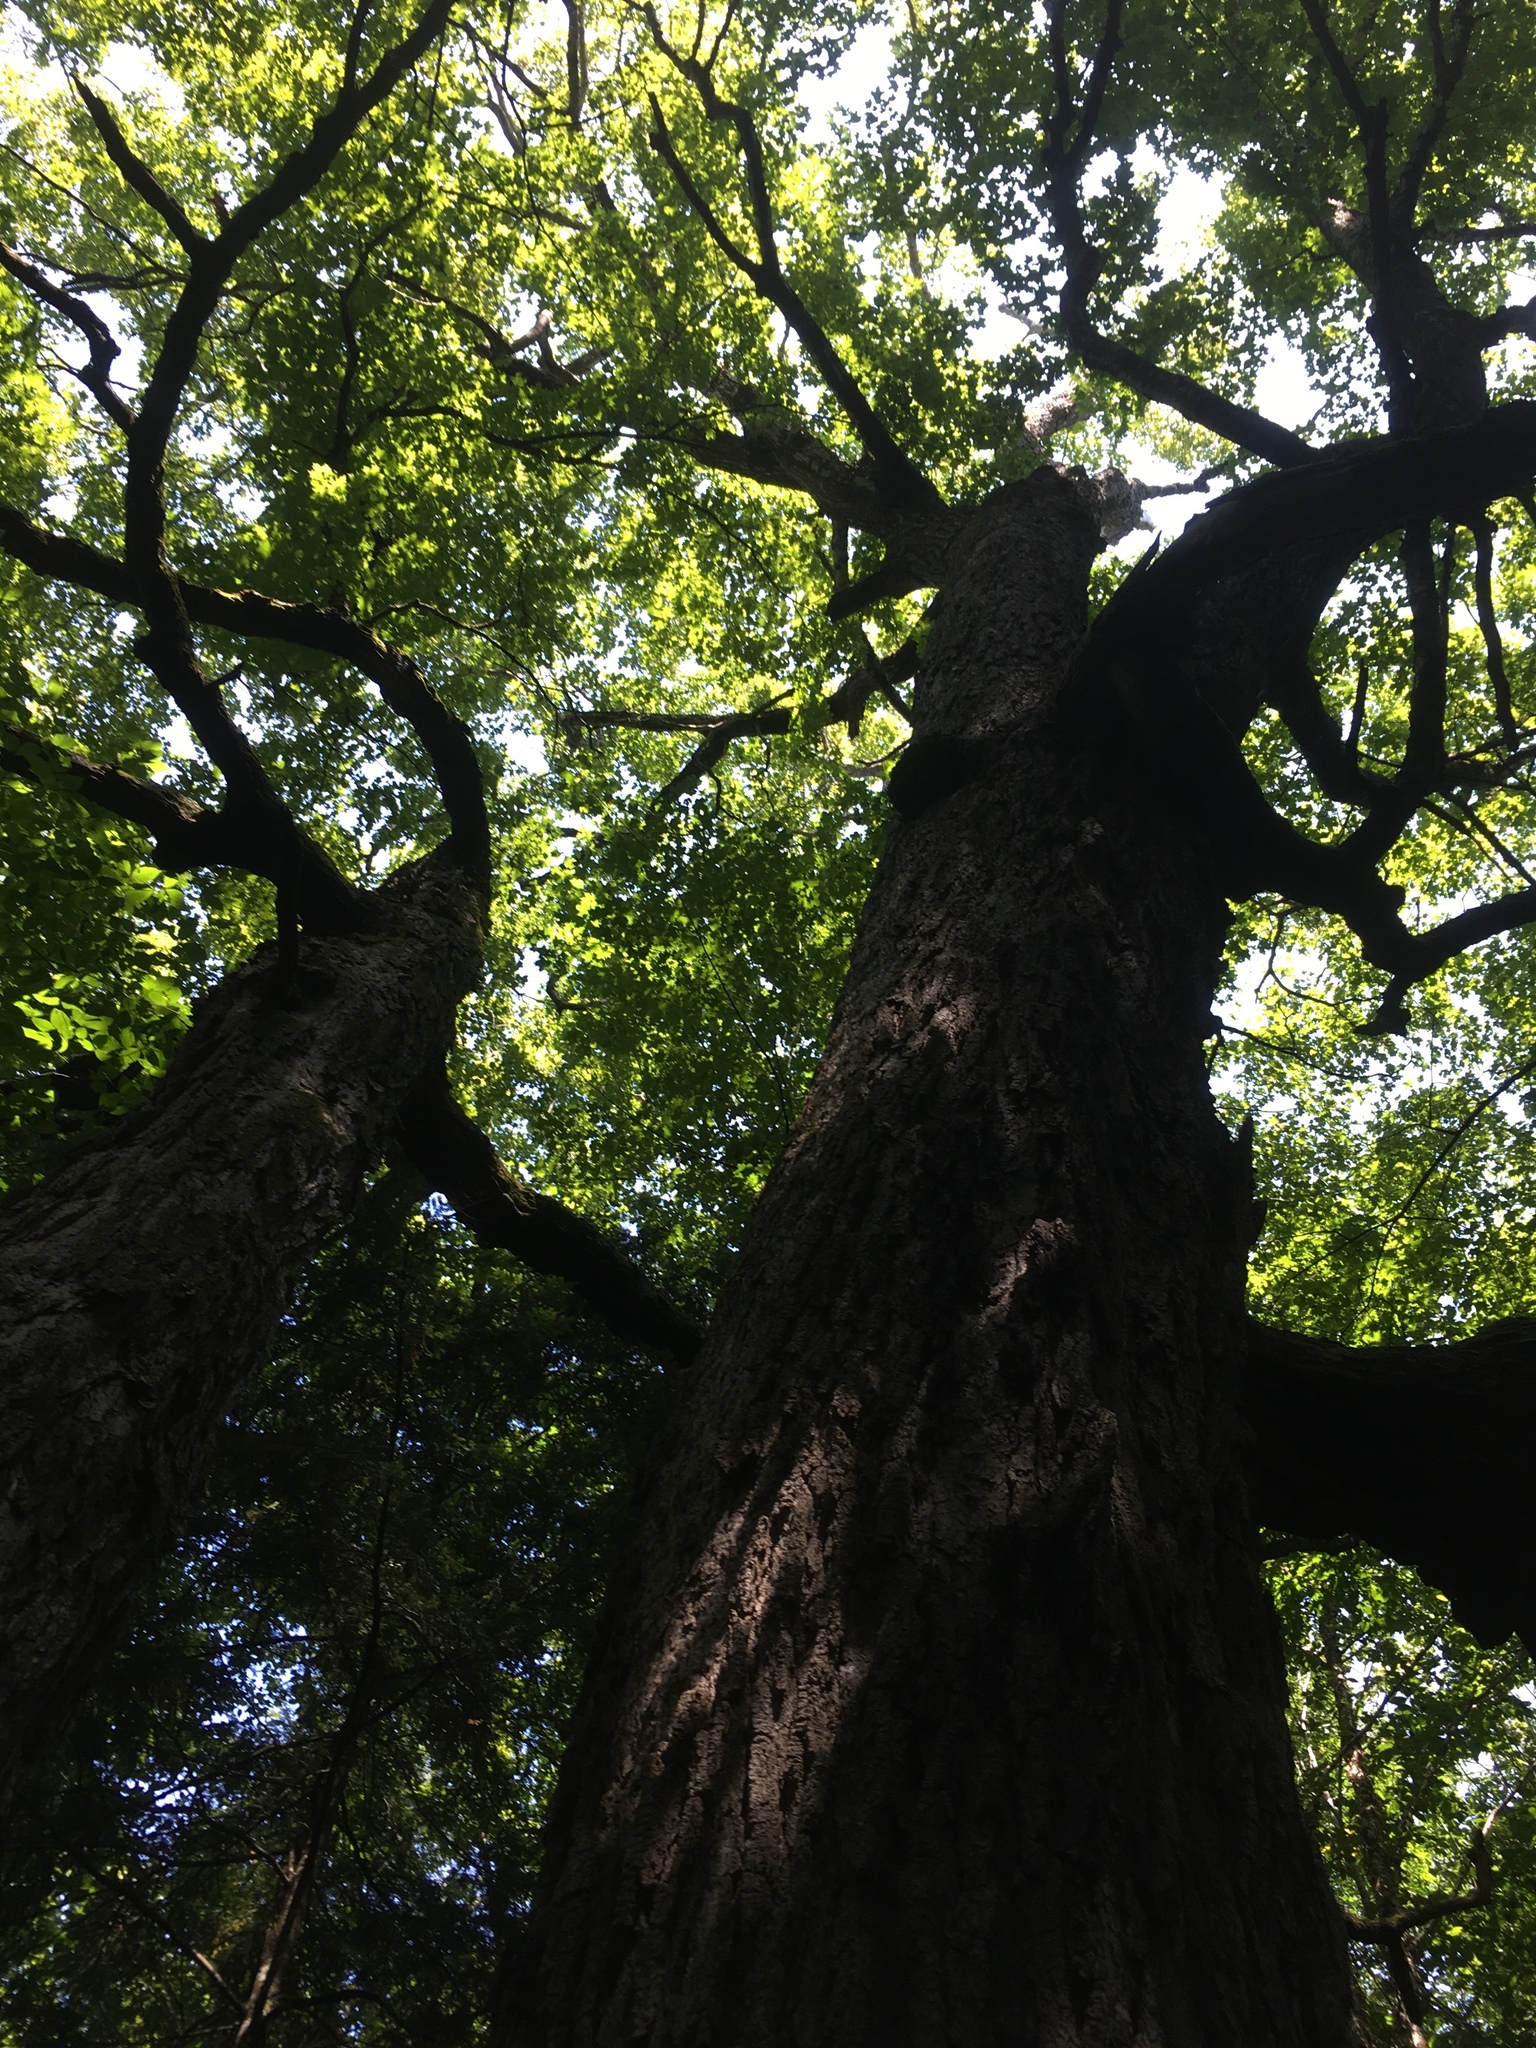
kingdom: Plantae
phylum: Tracheophyta
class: Magnoliopsida
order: Sapindales
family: Sapindaceae
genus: Acer
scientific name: Acer saccharum
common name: Sugar maple
